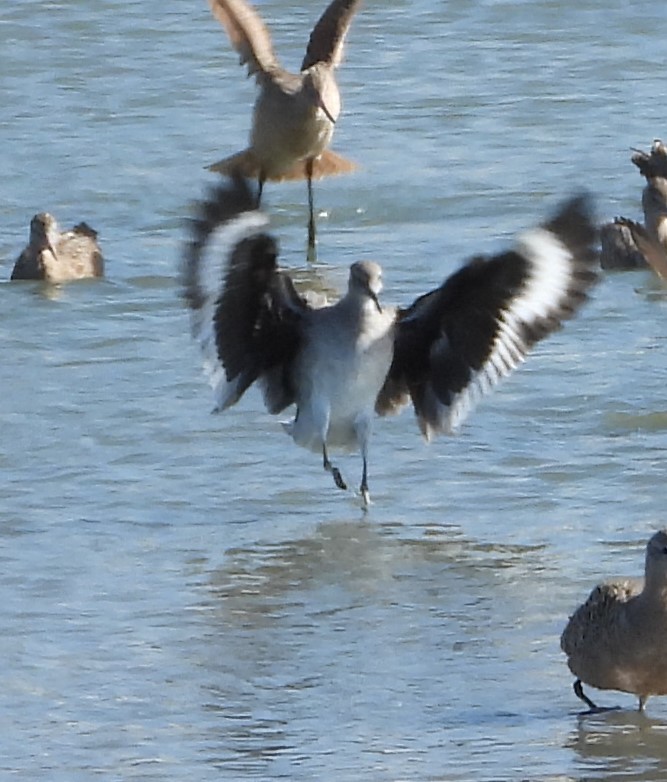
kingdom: Animalia
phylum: Chordata
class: Aves
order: Charadriiformes
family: Scolopacidae
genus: Tringa
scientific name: Tringa semipalmata
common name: Willet
